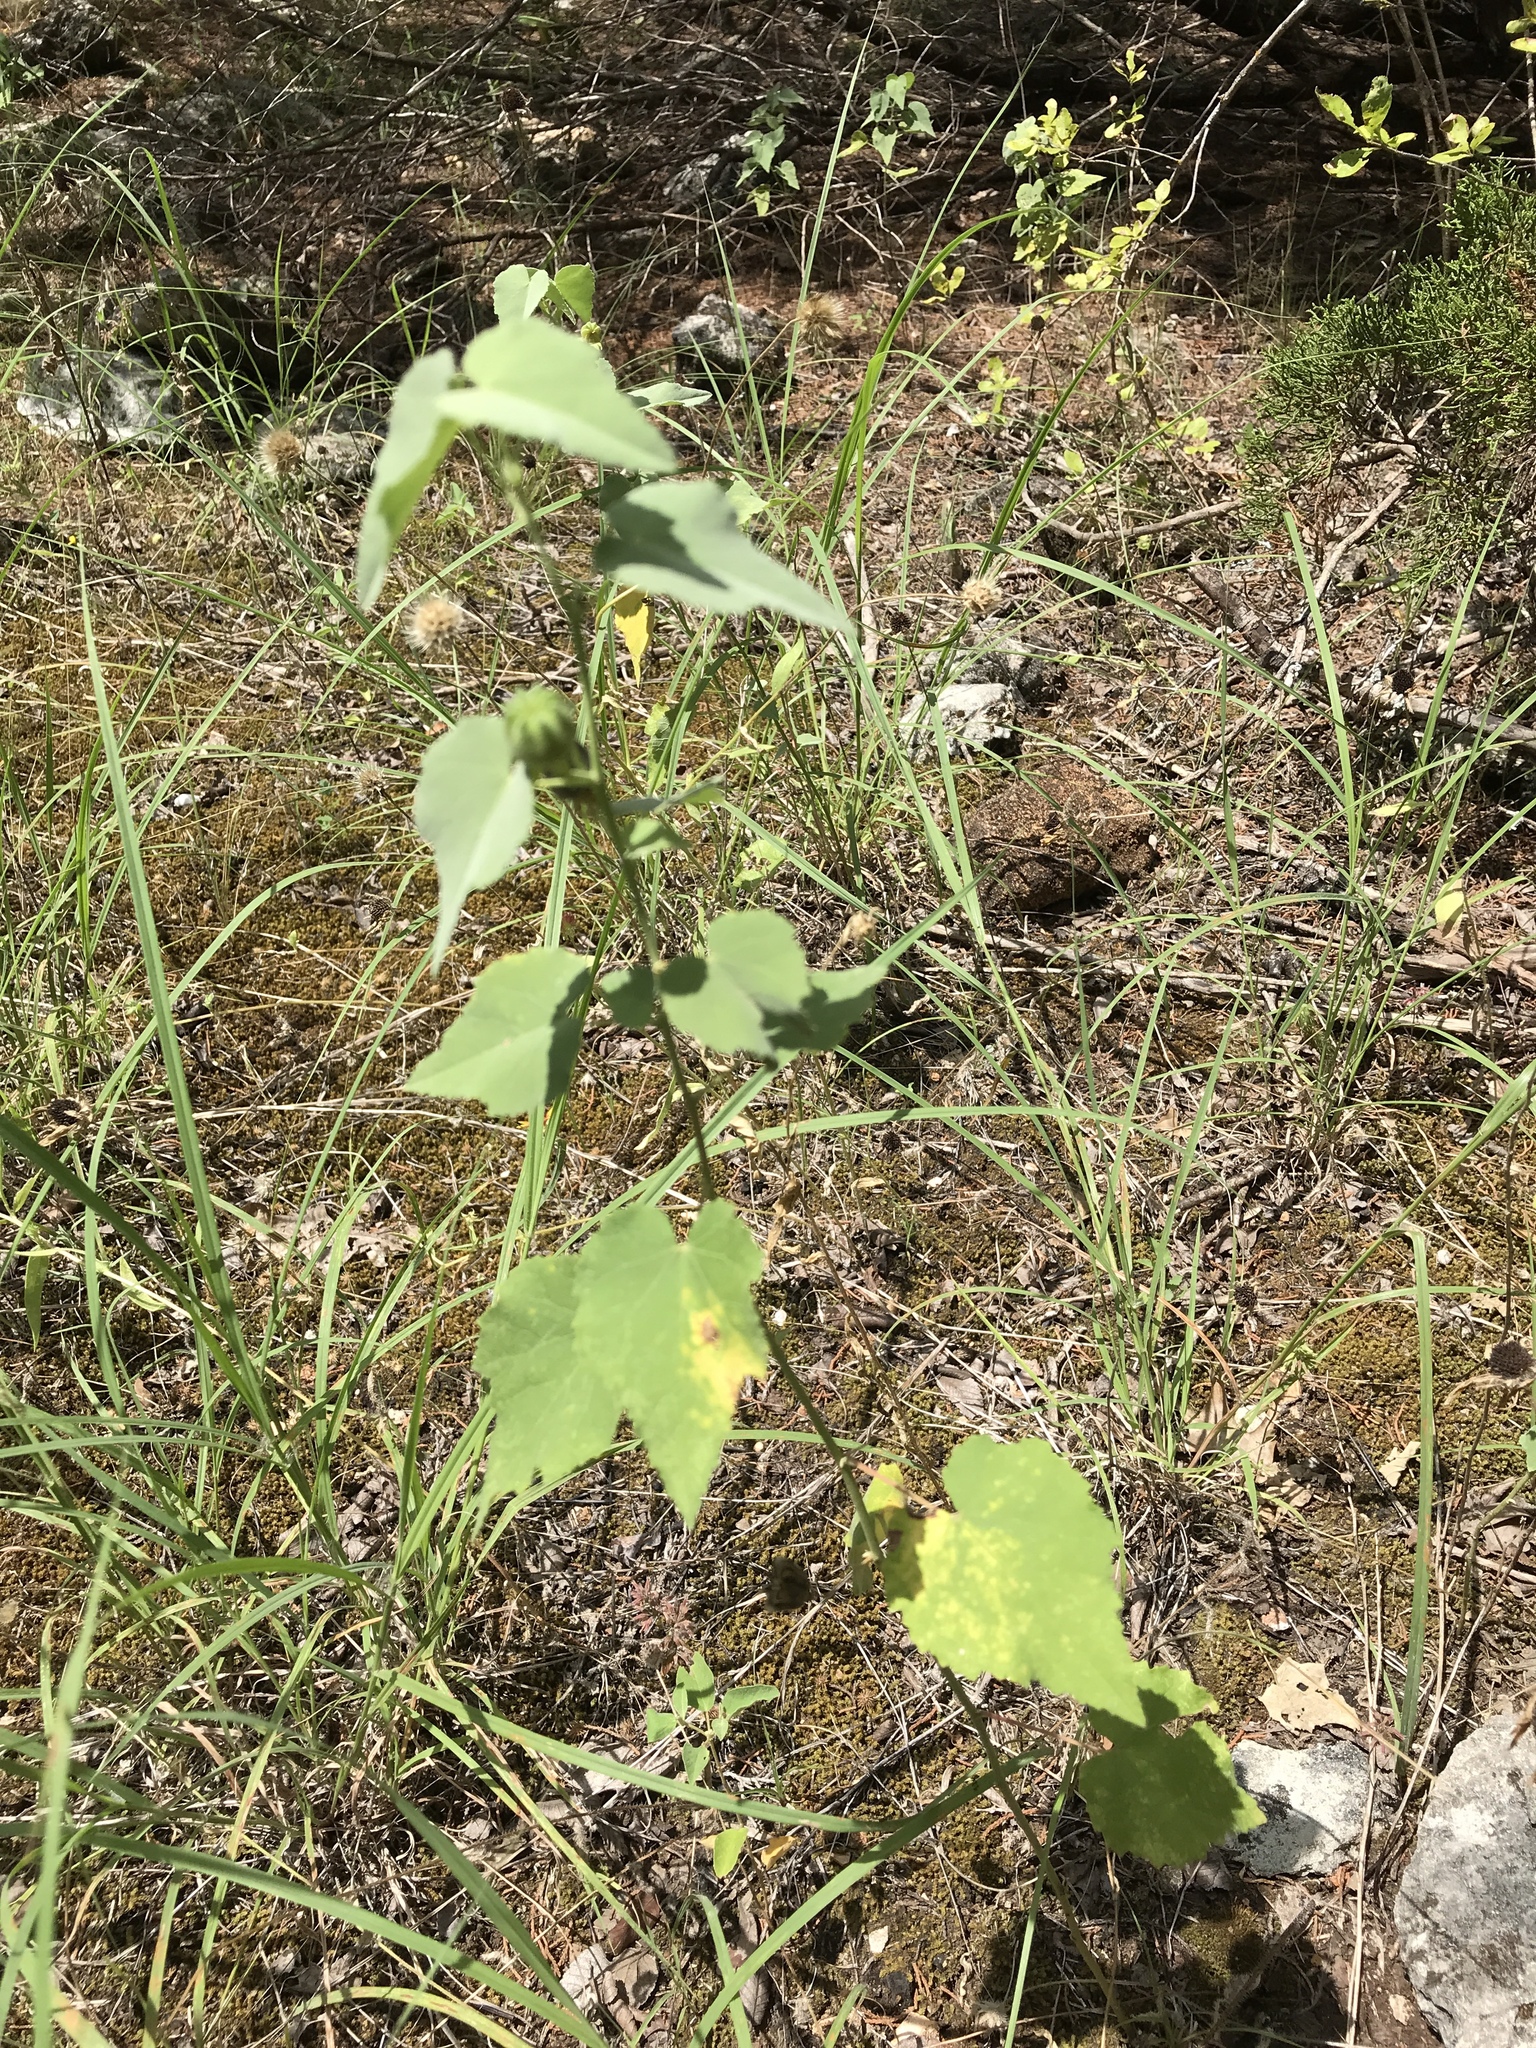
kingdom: Plantae
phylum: Tracheophyta
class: Magnoliopsida
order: Malvales
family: Malvaceae
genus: Abutilon
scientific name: Abutilon fruticosum
